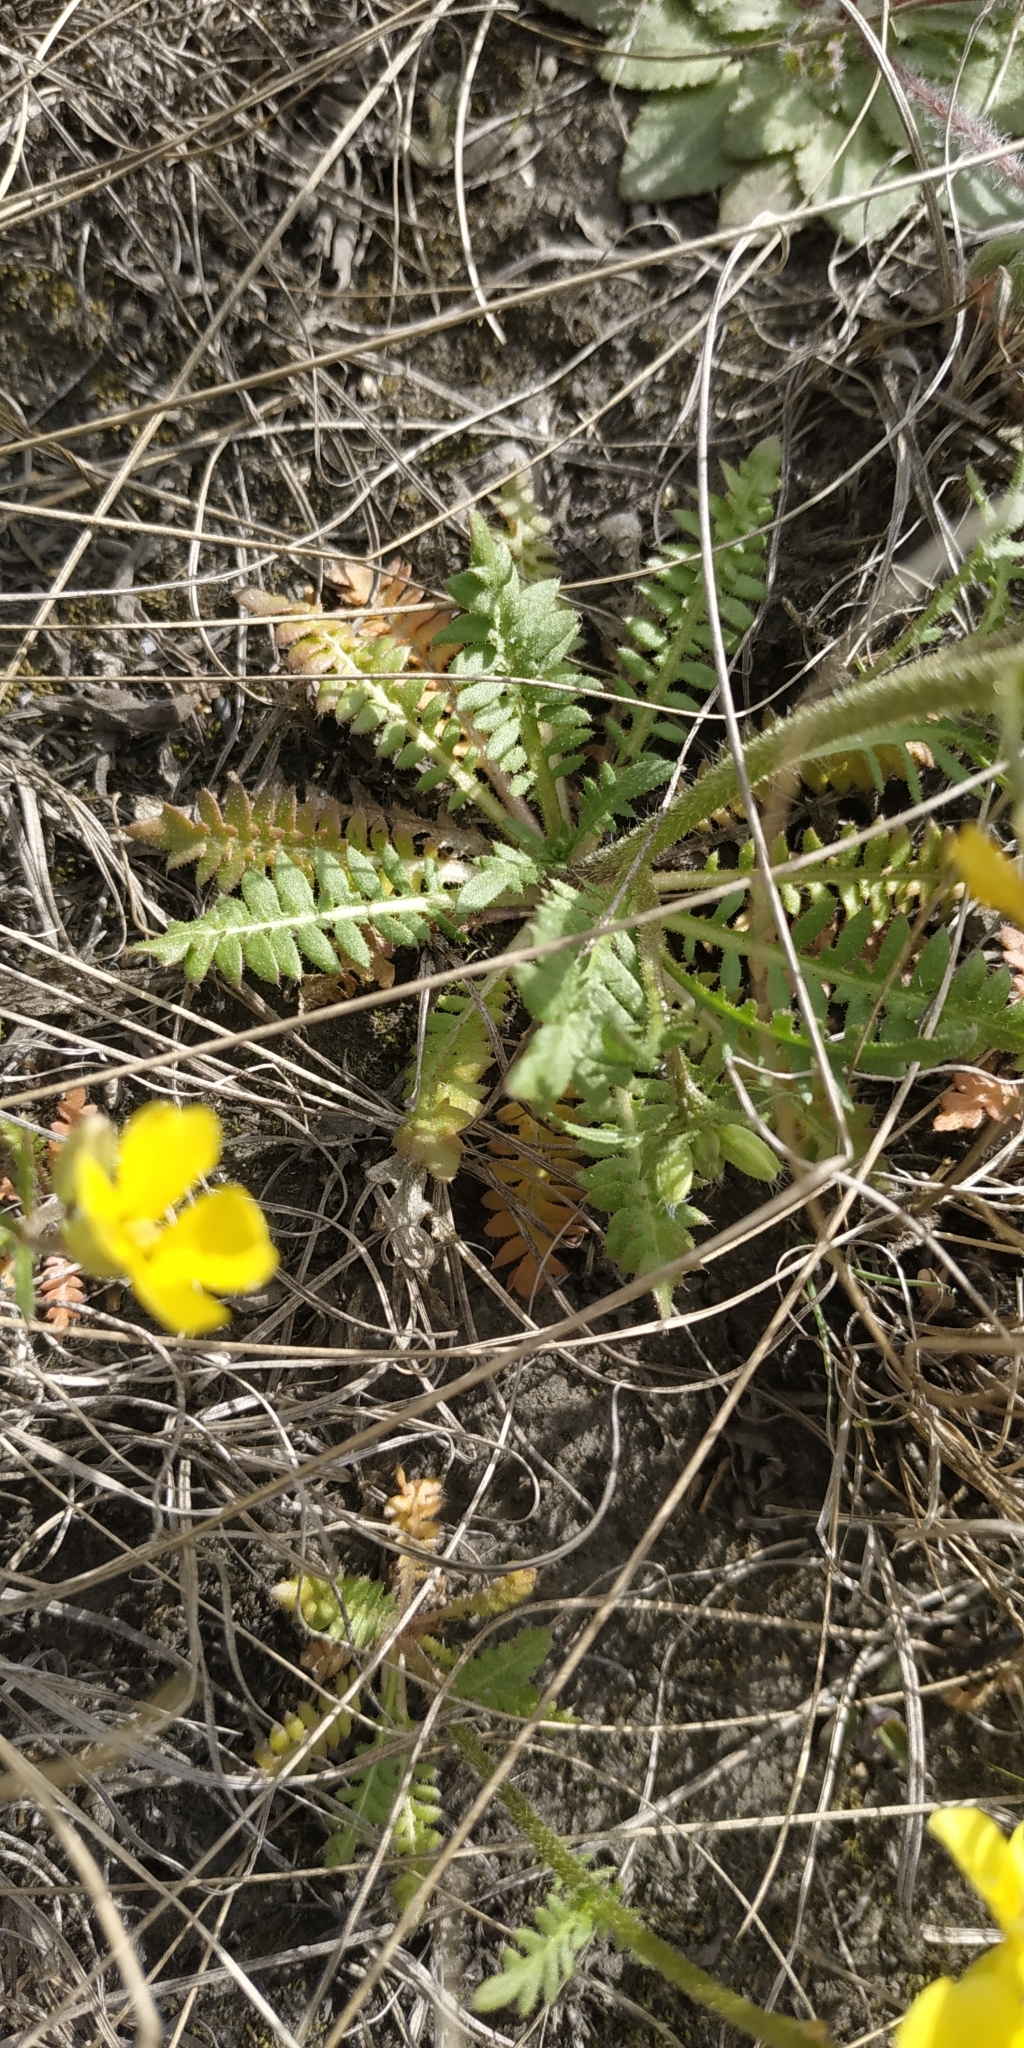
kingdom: Plantae
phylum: Tracheophyta
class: Magnoliopsida
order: Brassicales
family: Brassicaceae
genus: Chorispora
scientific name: Chorispora sibirica
